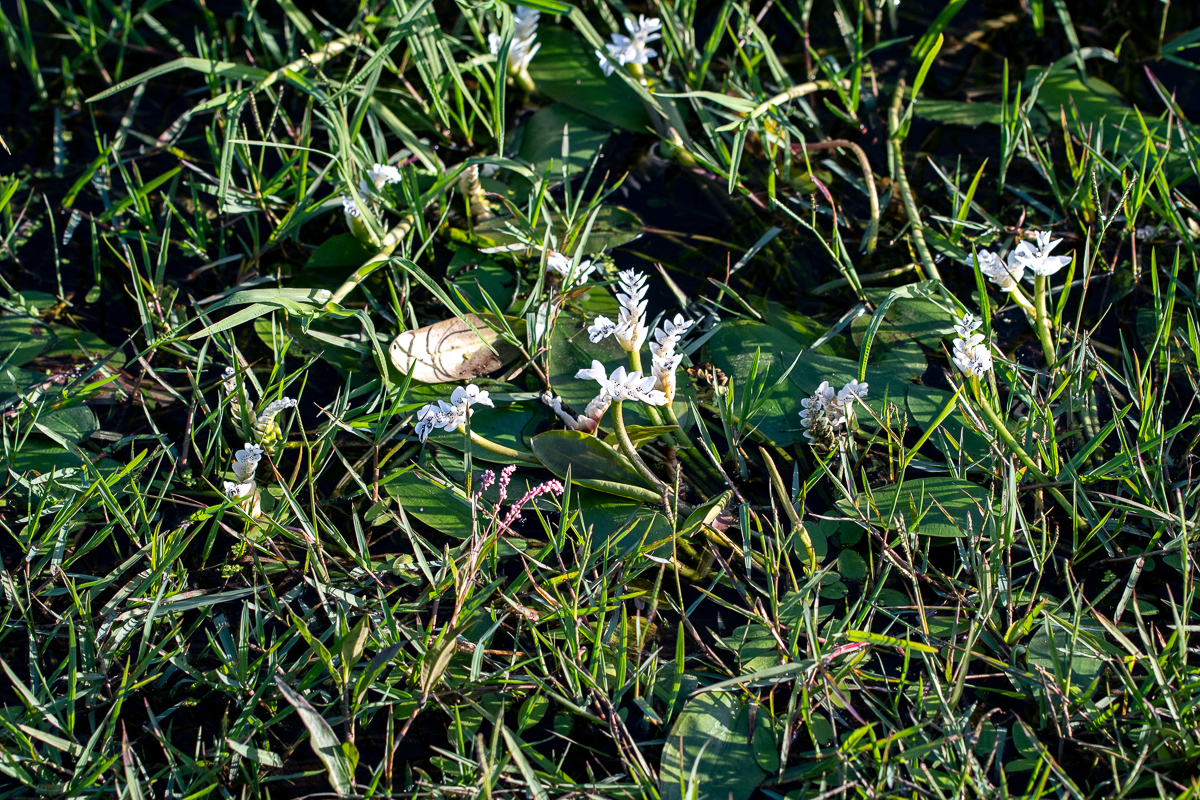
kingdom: Plantae
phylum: Tracheophyta
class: Liliopsida
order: Alismatales
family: Aponogetonaceae
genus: Aponogeton
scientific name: Aponogeton distachyos
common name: Cape-pondweed
